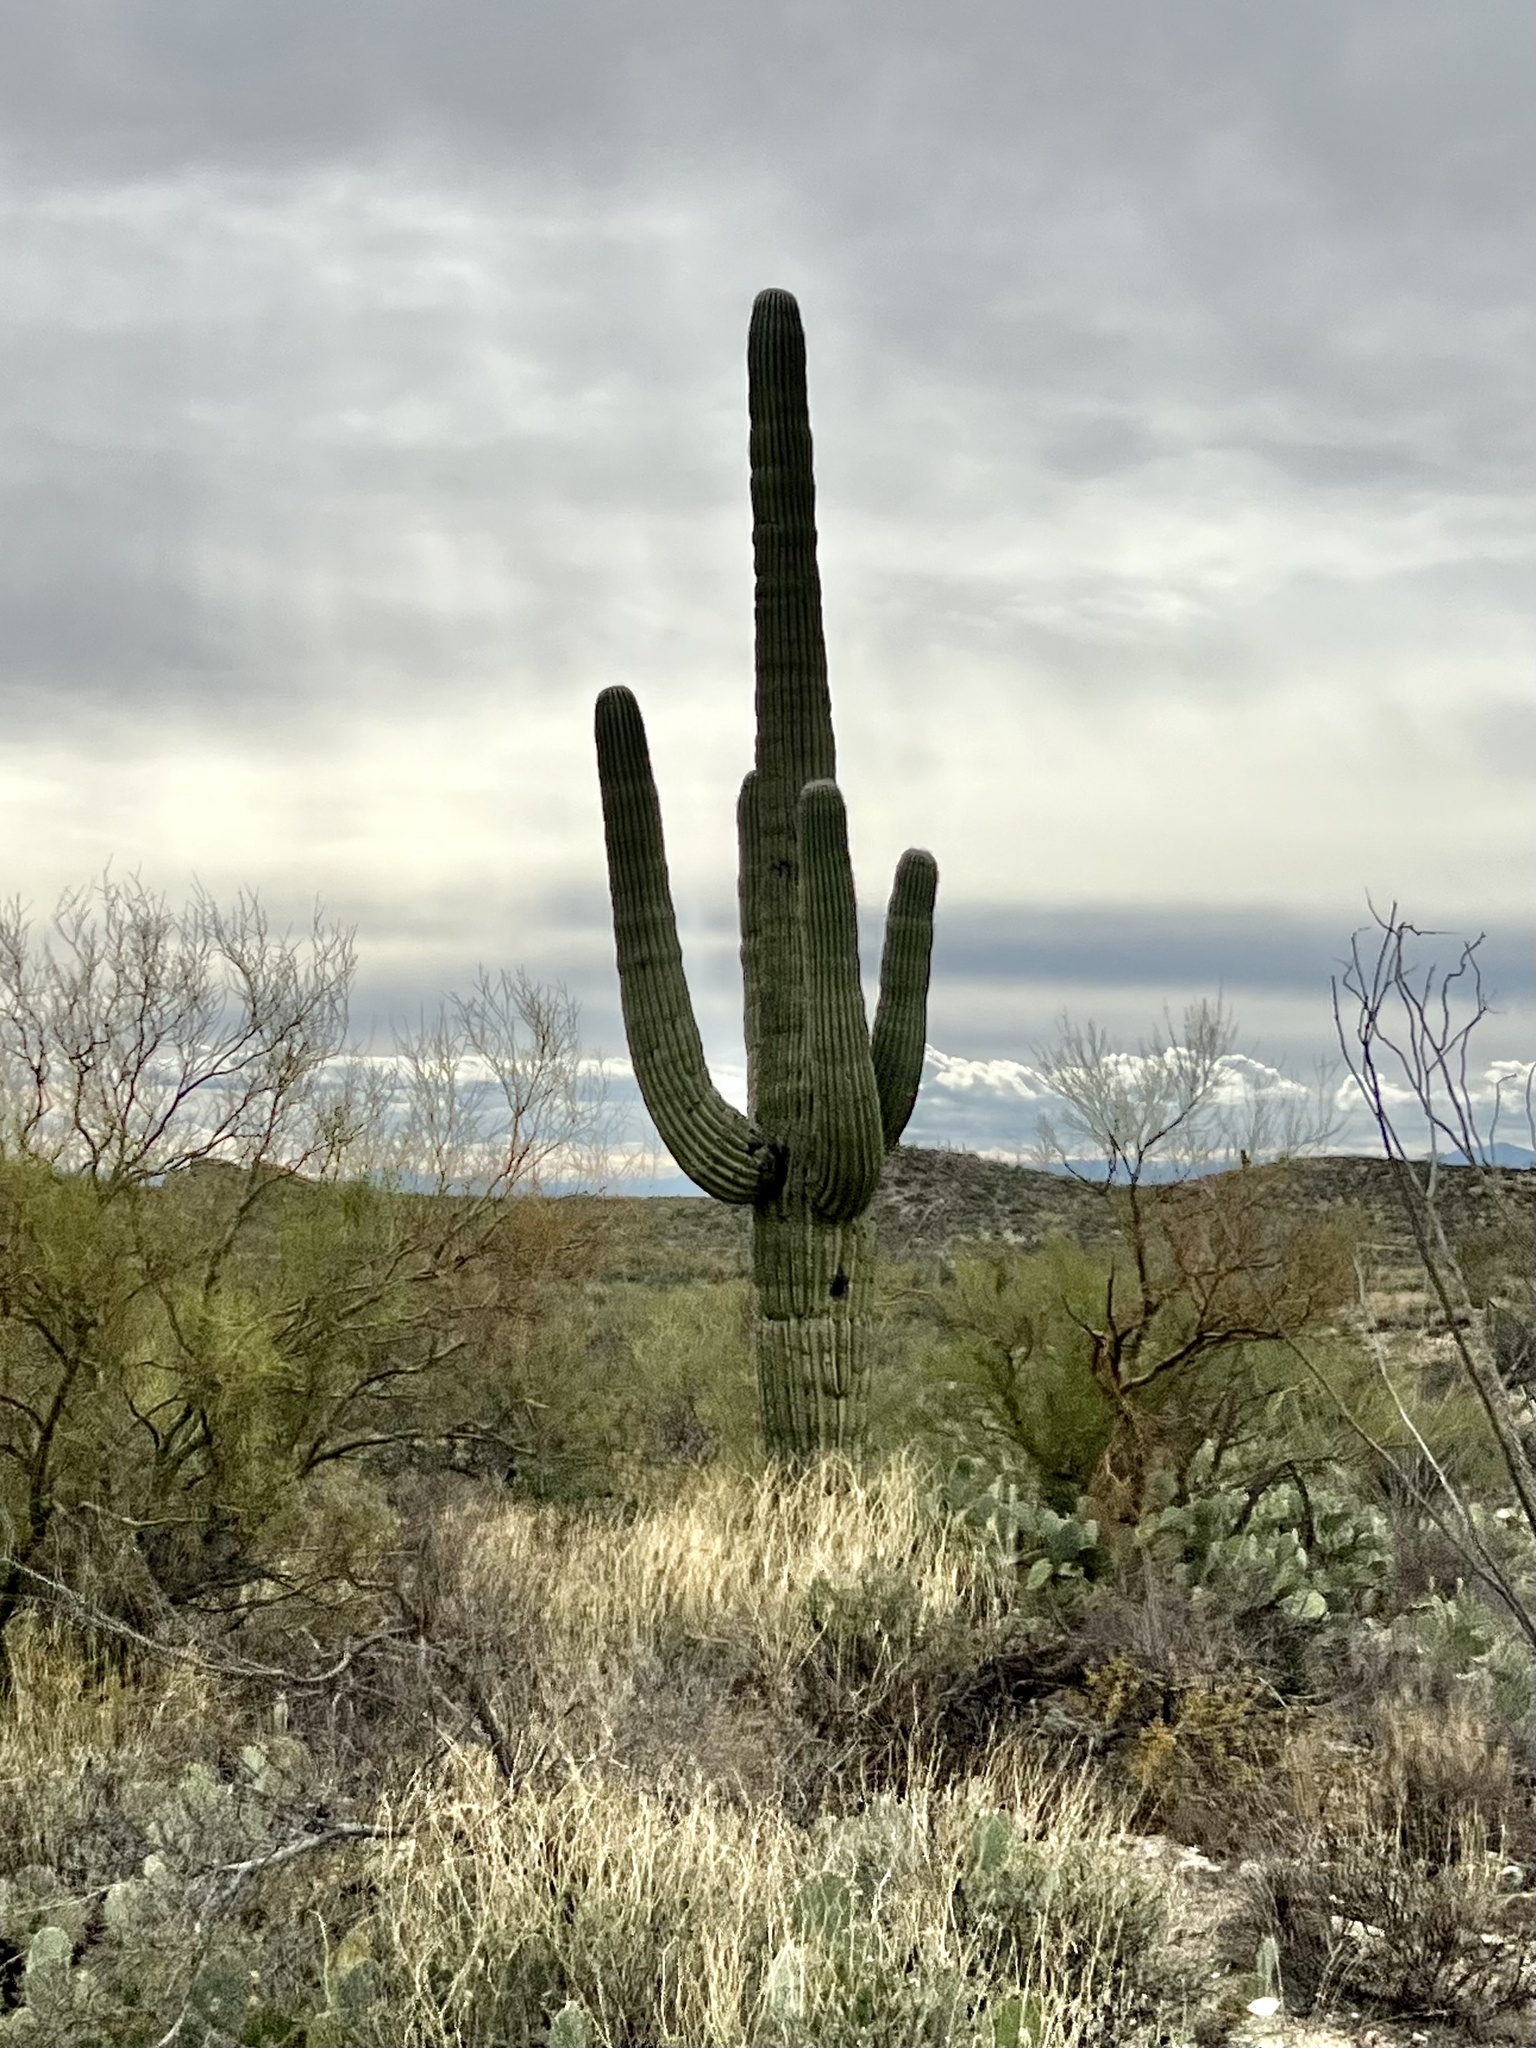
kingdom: Plantae
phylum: Tracheophyta
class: Magnoliopsida
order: Caryophyllales
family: Cactaceae
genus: Carnegiea
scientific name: Carnegiea gigantea
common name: Saguaro
